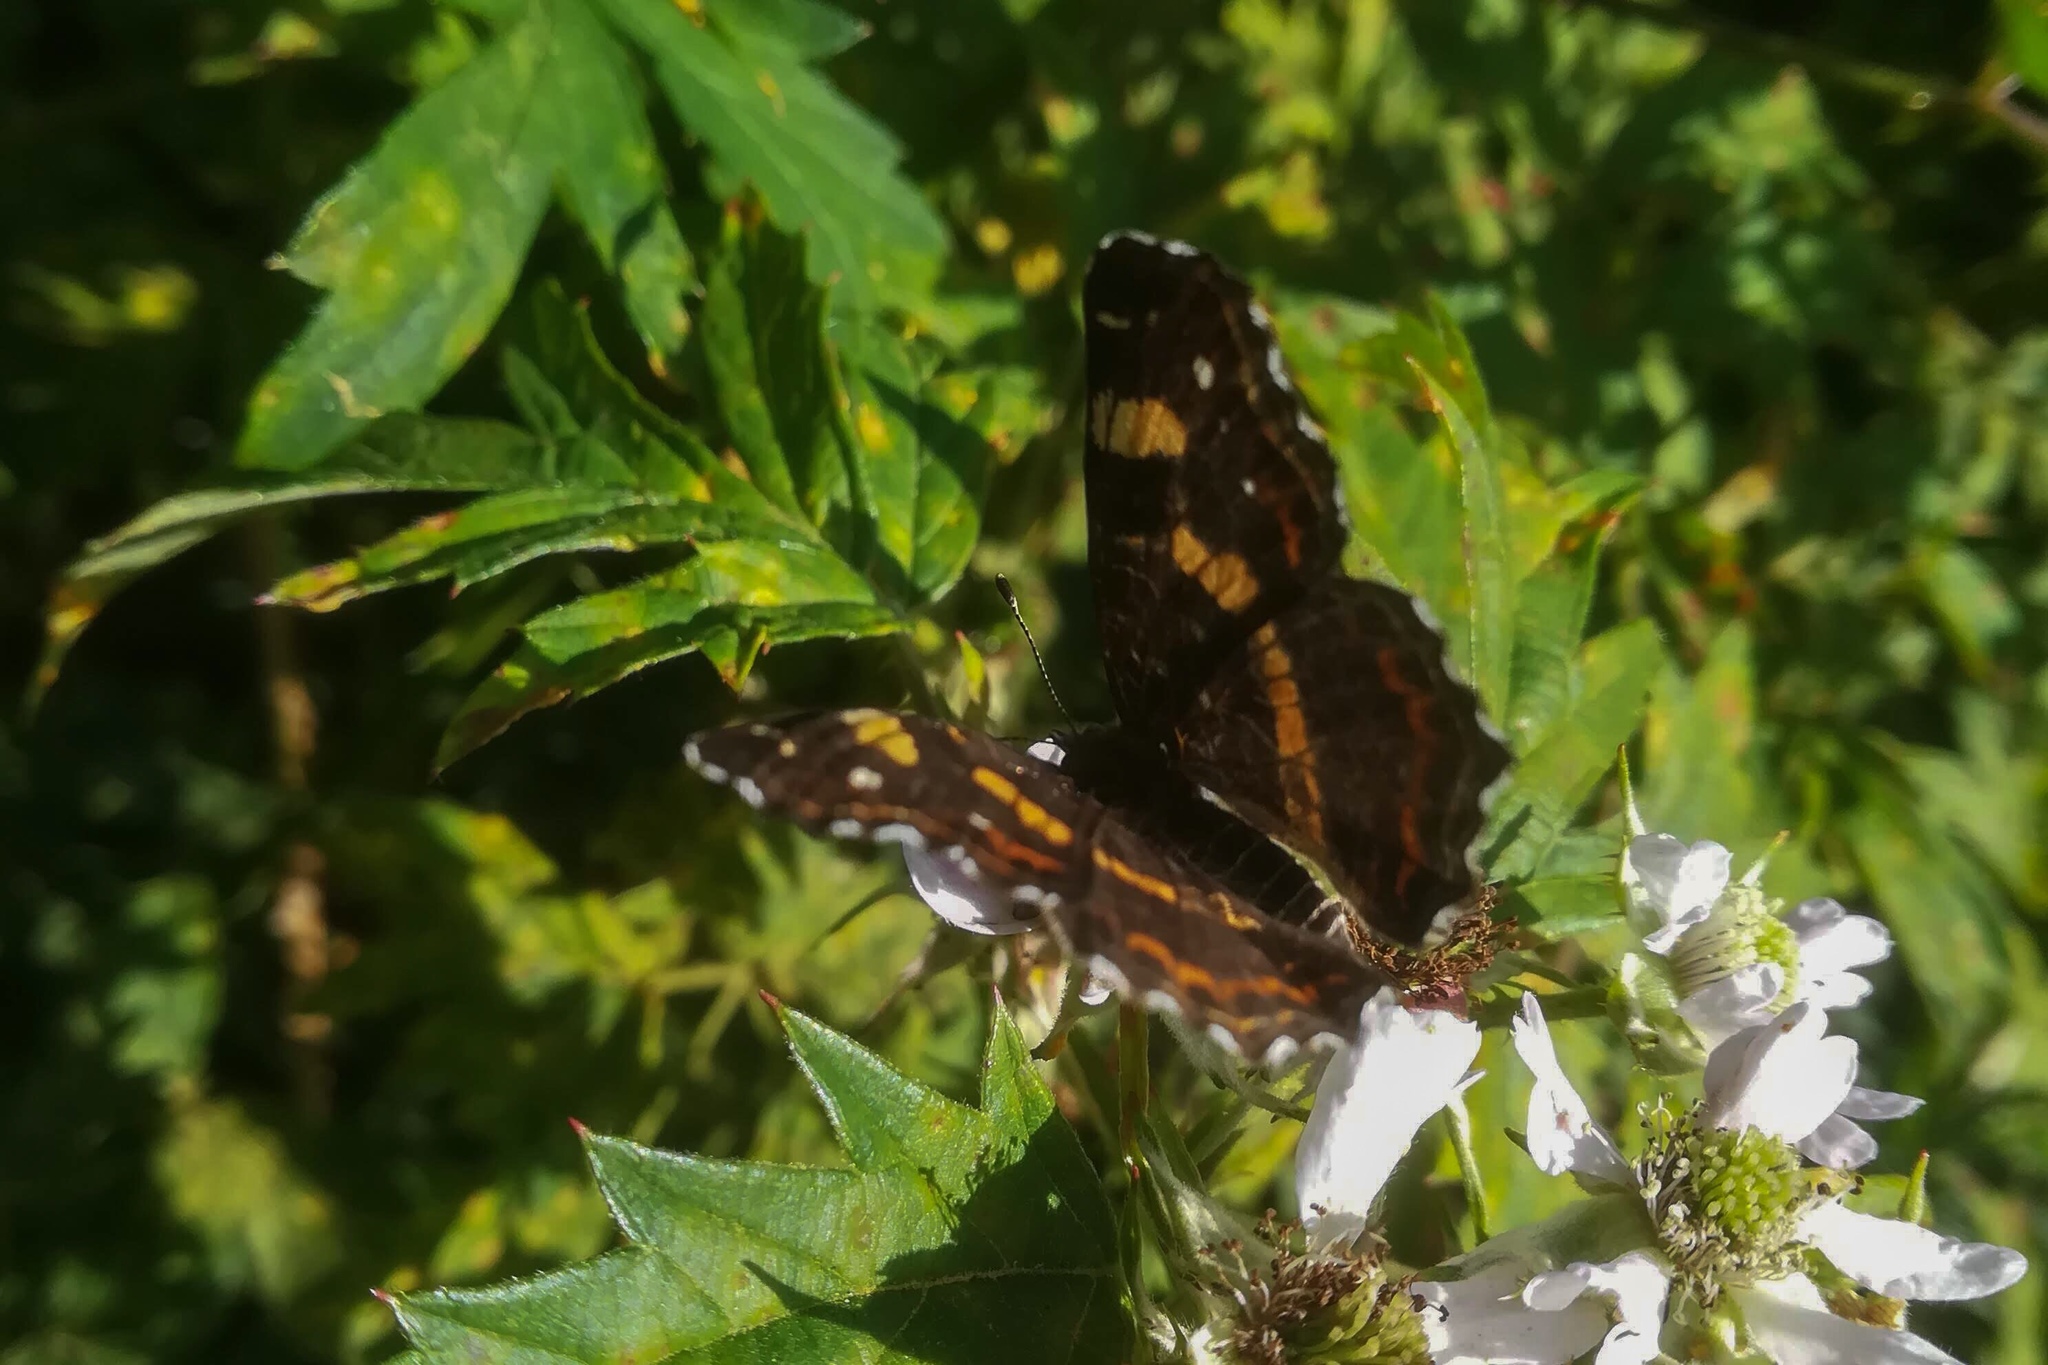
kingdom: Animalia
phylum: Arthropoda
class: Insecta
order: Lepidoptera
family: Nymphalidae
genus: Araschnia
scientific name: Araschnia levana
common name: Map butterfly
